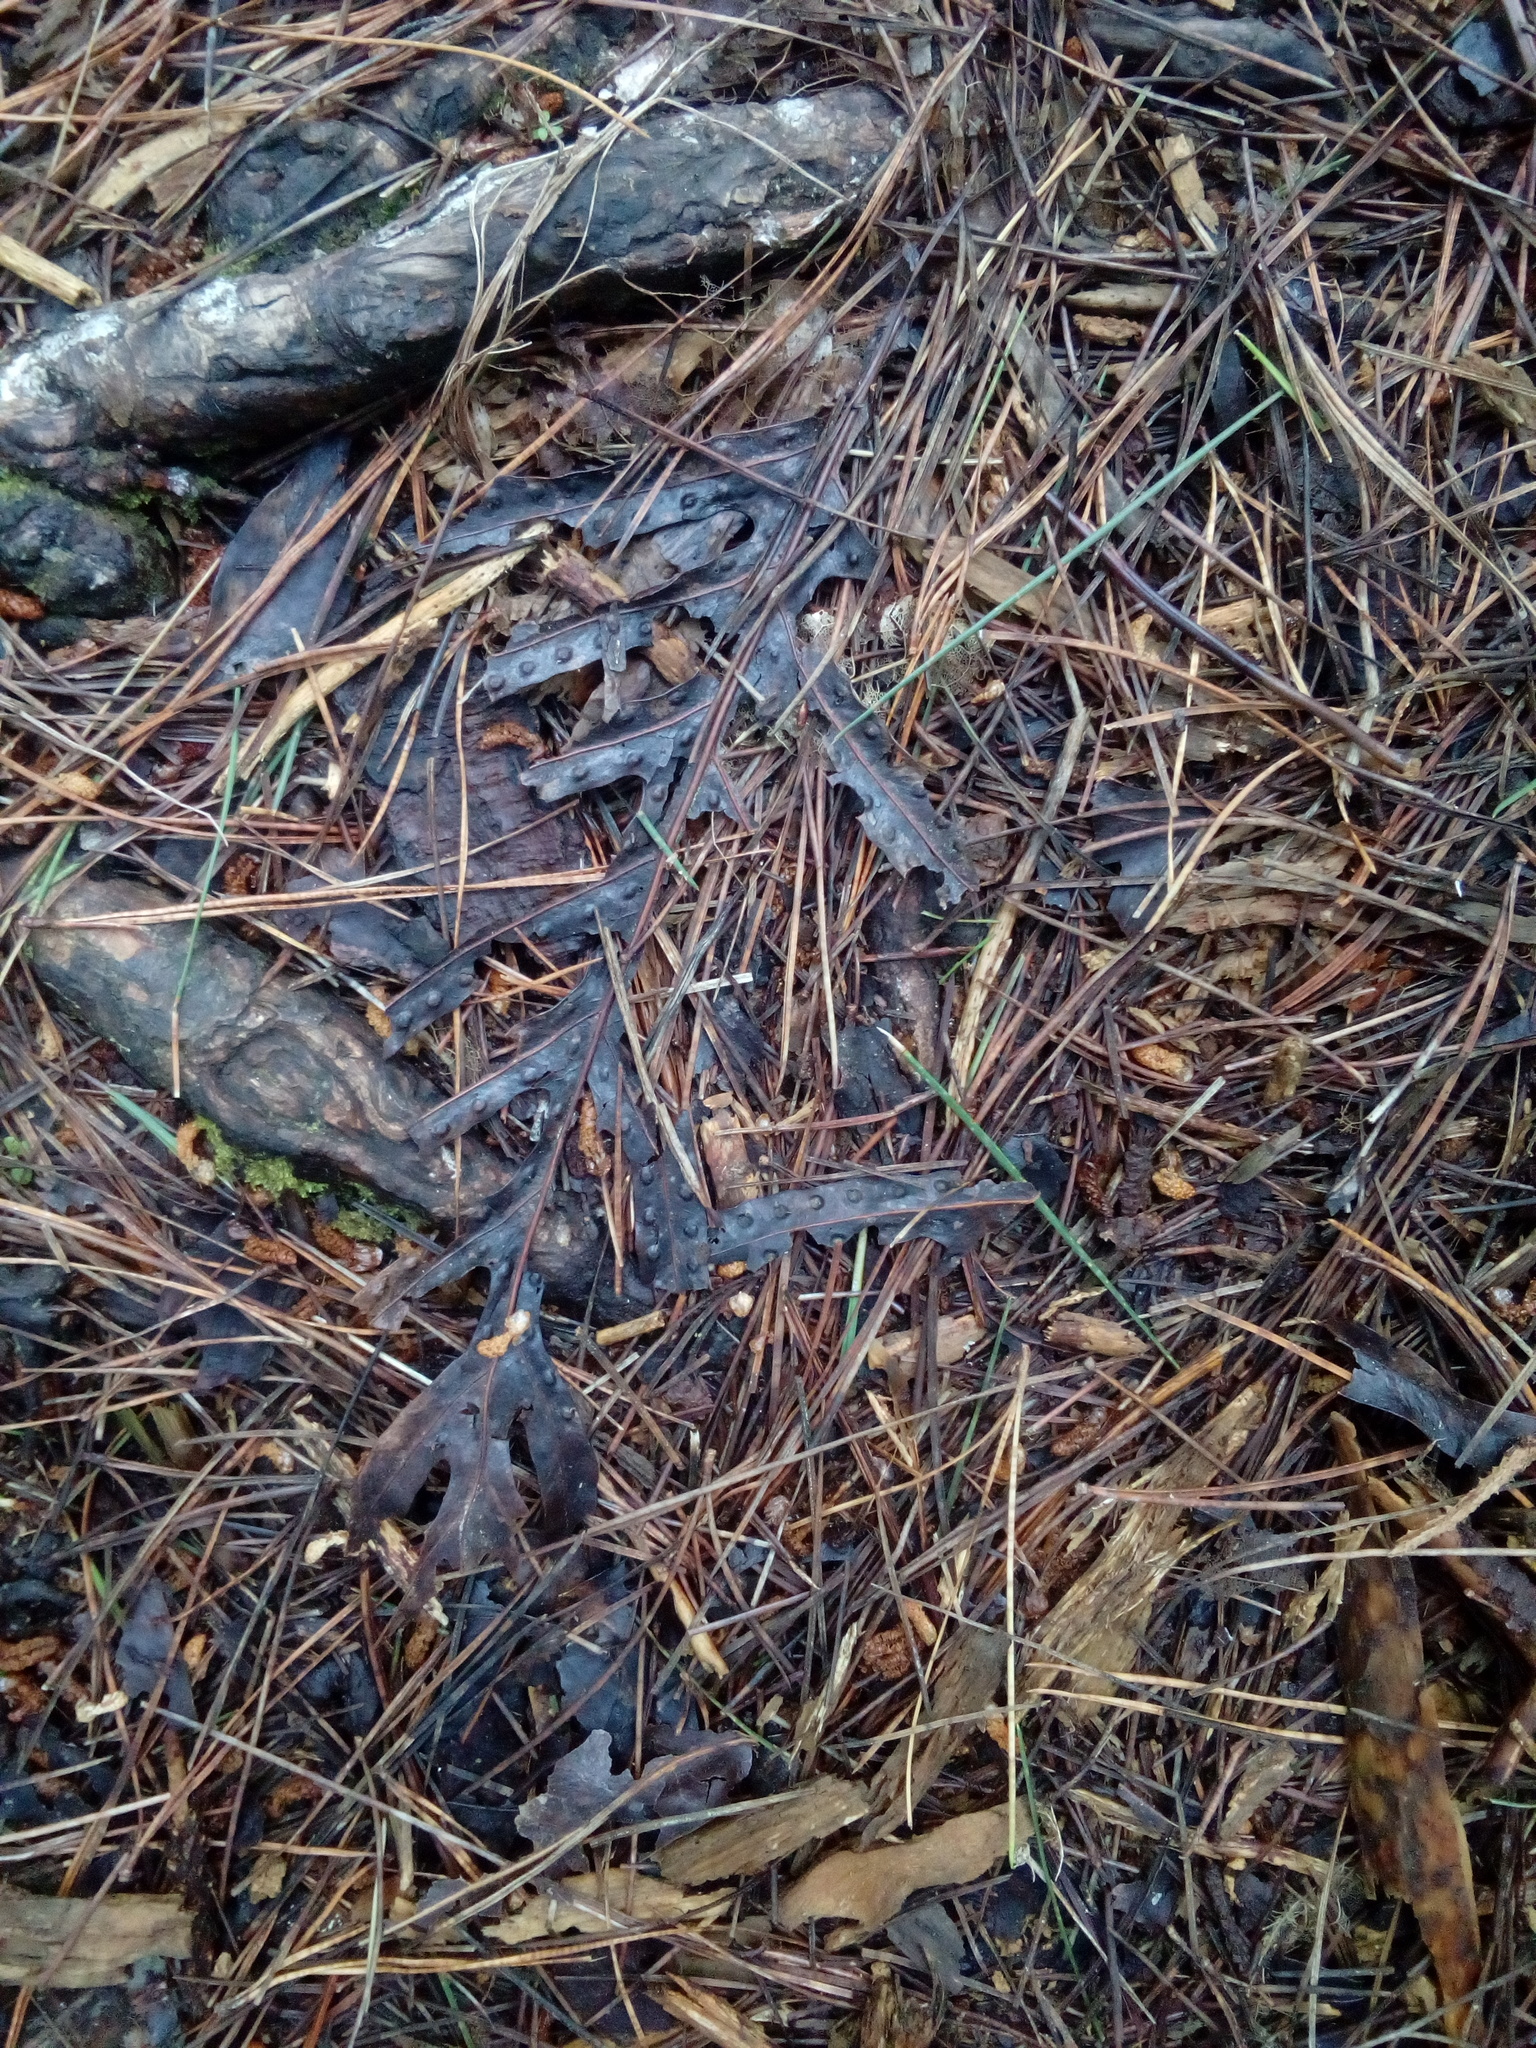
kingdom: Plantae
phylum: Tracheophyta
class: Polypodiopsida
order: Polypodiales
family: Polypodiaceae
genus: Lecanopteris
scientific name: Lecanopteris pustulata
